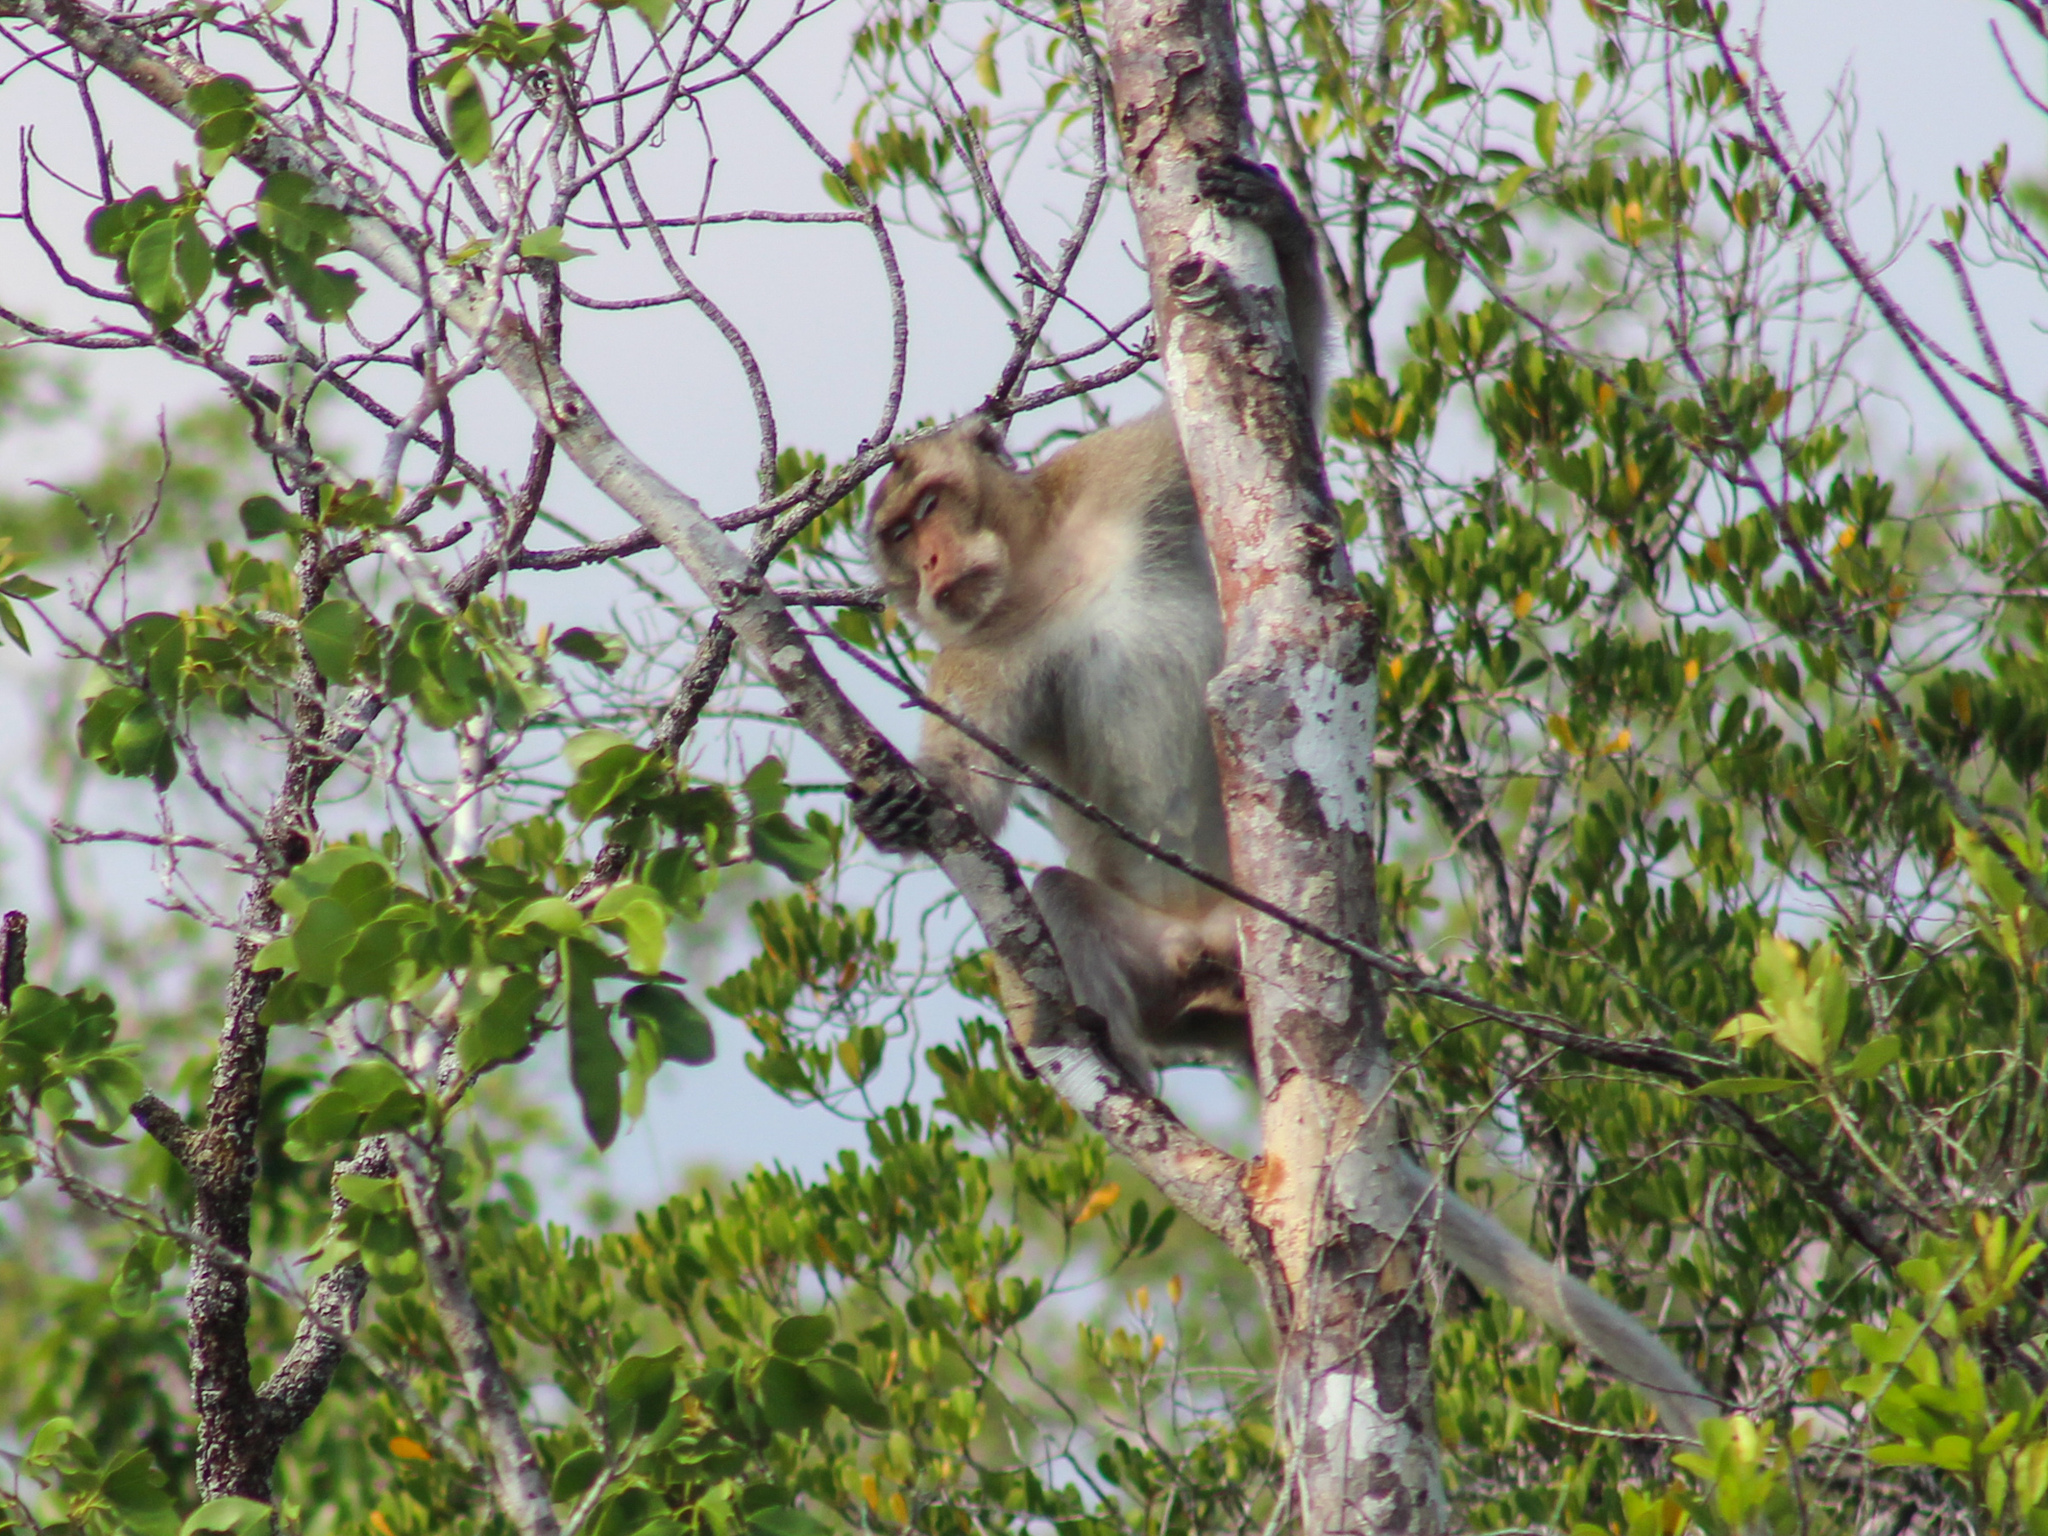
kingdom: Animalia
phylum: Chordata
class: Mammalia
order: Primates
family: Cercopithecidae
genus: Macaca
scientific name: Macaca fascicularis
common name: Crab-eating macaque
